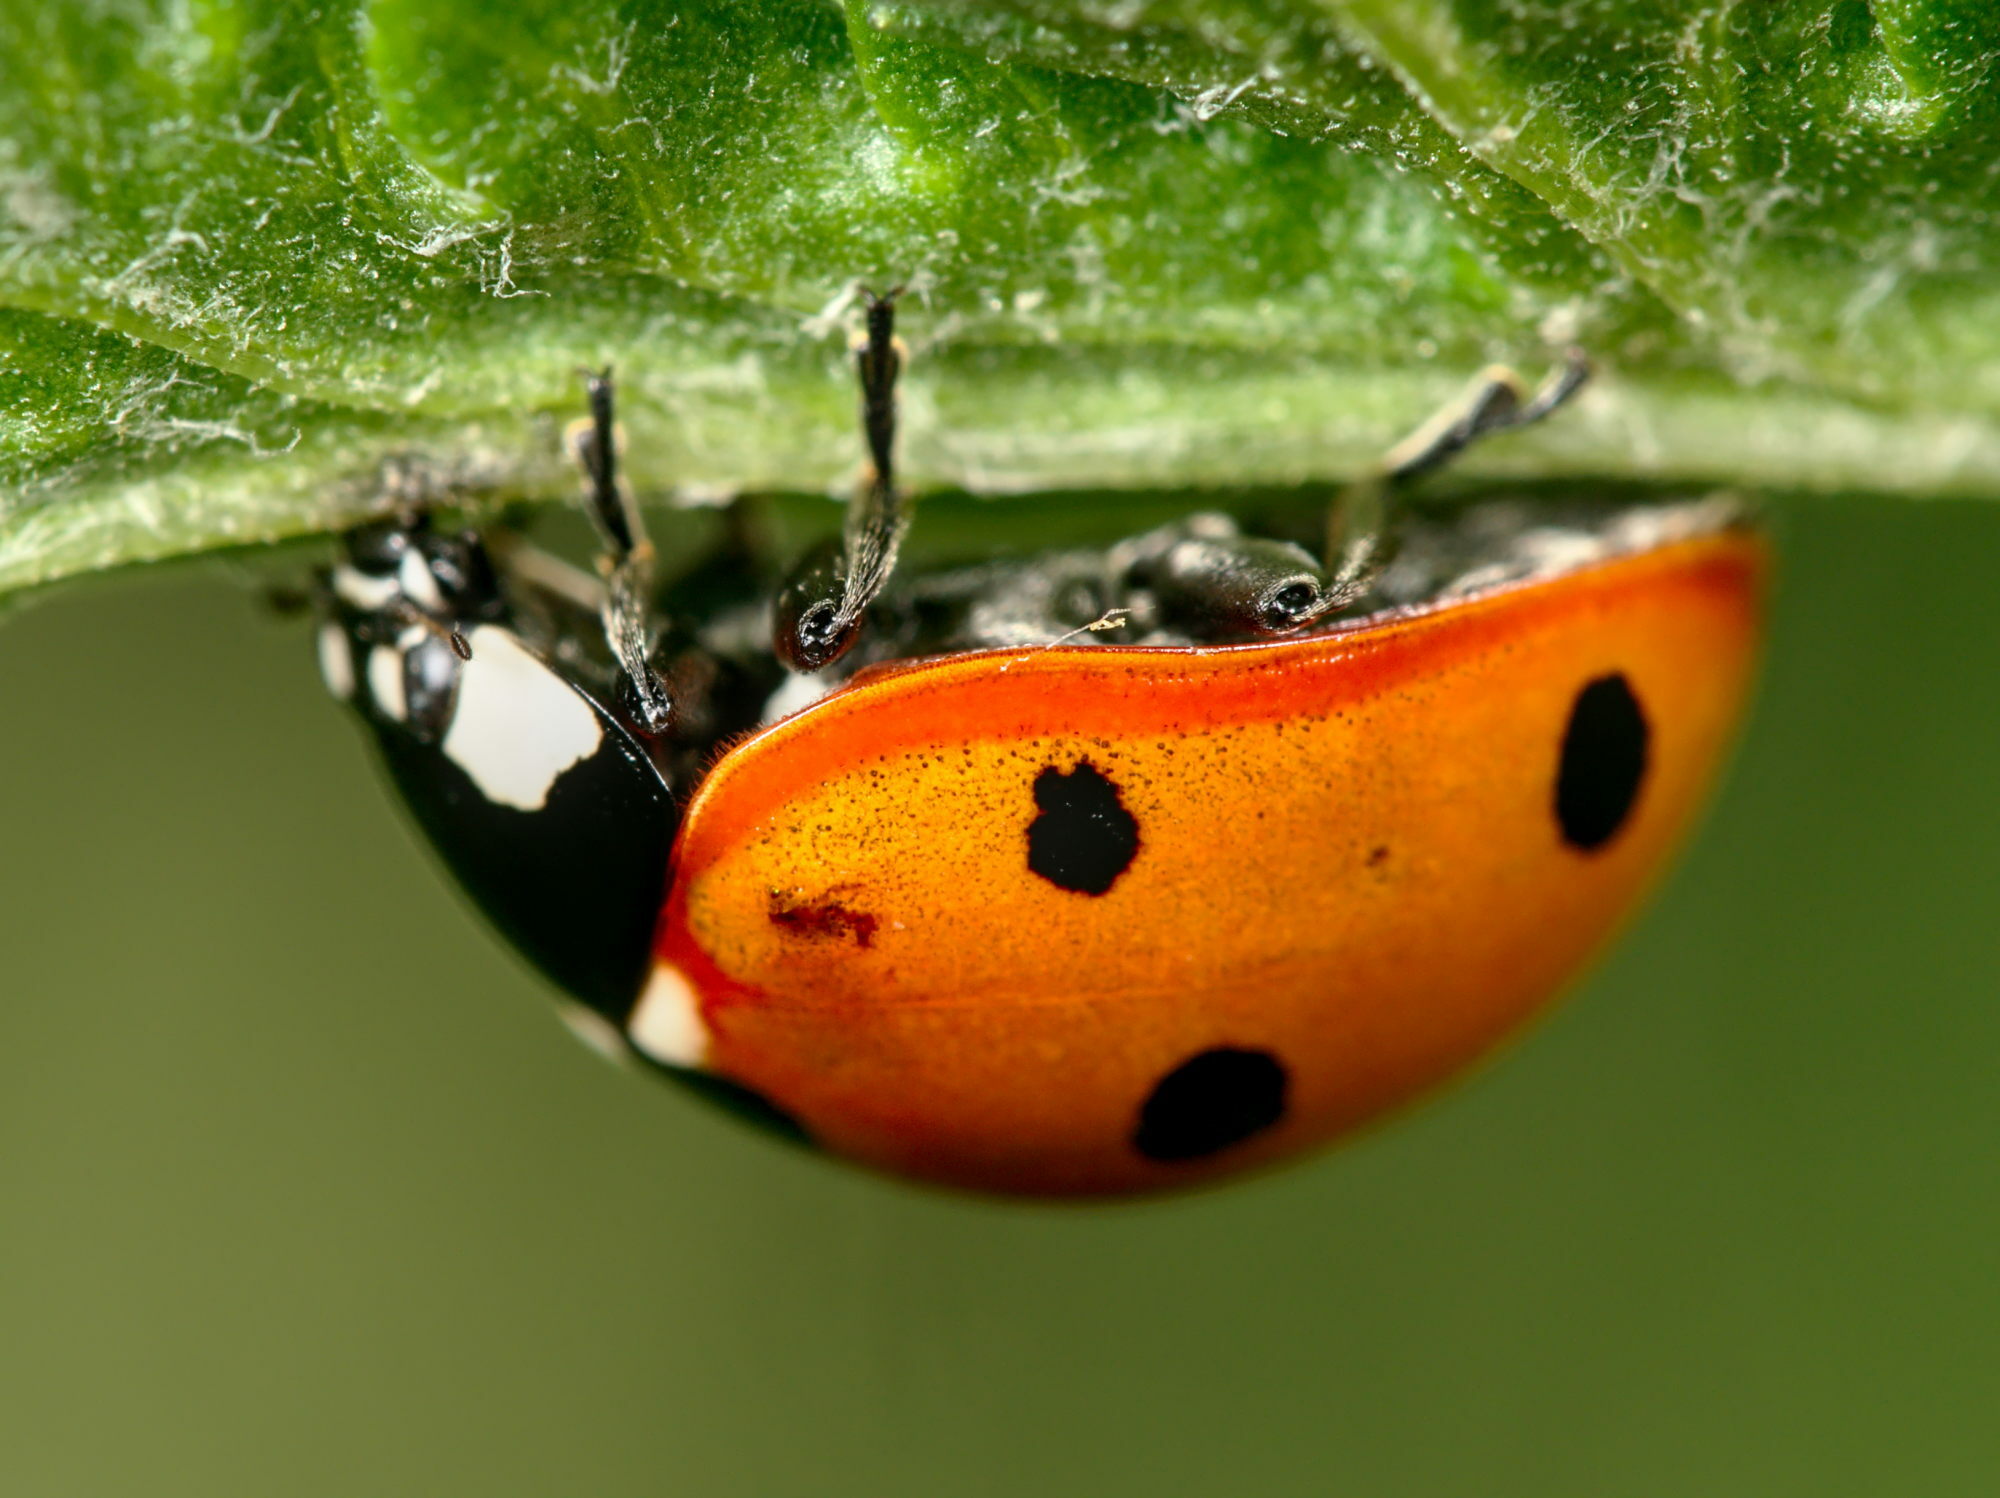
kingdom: Animalia
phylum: Arthropoda
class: Insecta
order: Coleoptera
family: Coccinellidae
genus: Coccinella
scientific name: Coccinella septempunctata
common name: Sevenspotted lady beetle
